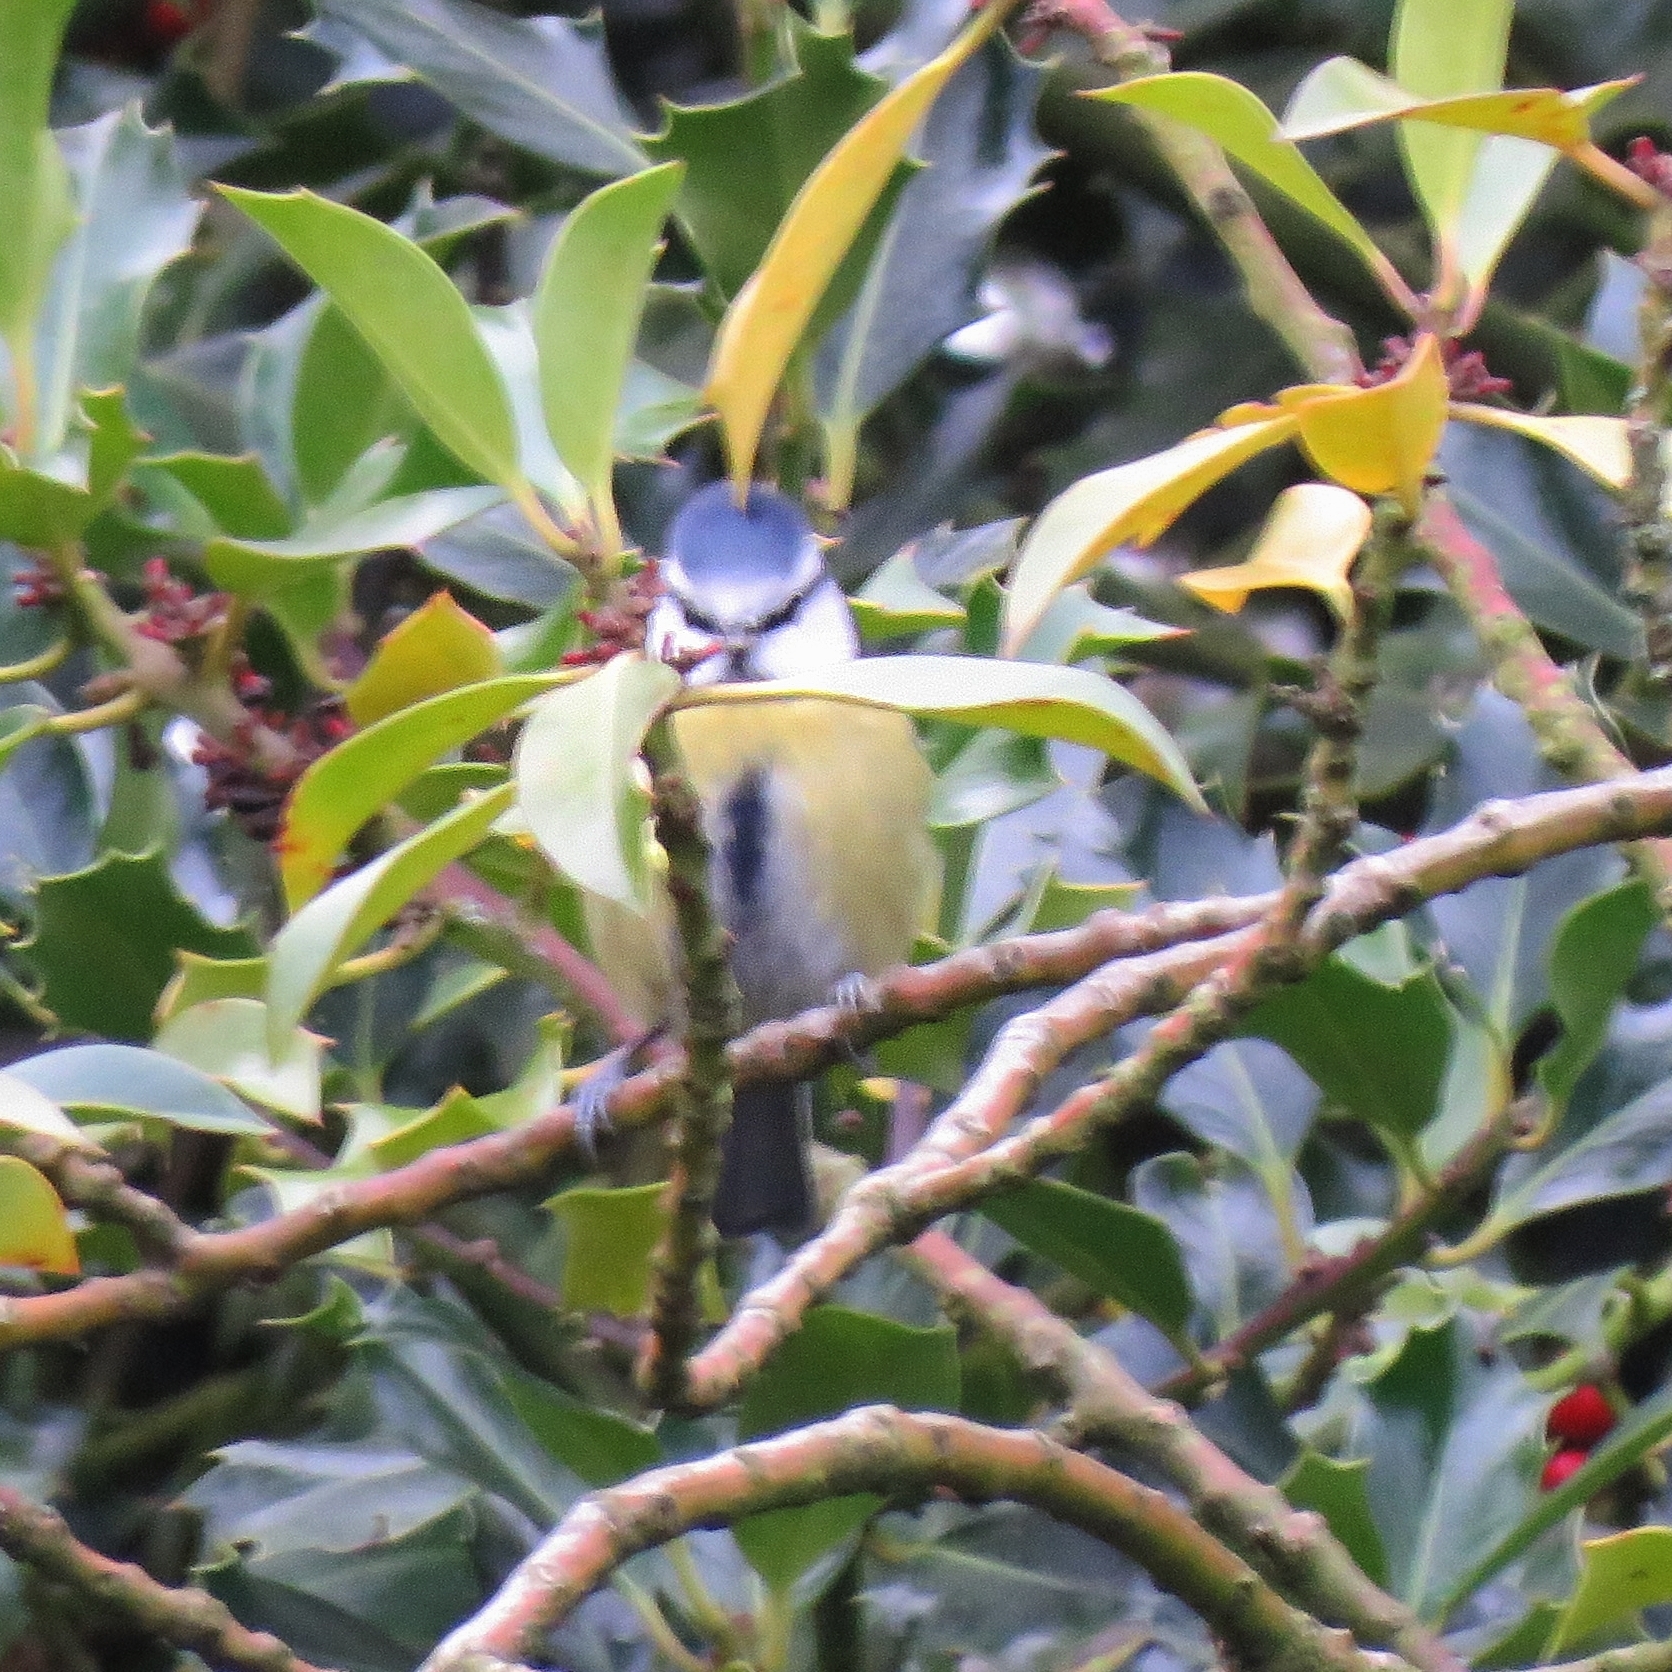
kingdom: Animalia
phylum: Chordata
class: Aves
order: Passeriformes
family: Paridae
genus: Cyanistes
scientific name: Cyanistes caeruleus
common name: Eurasian blue tit
